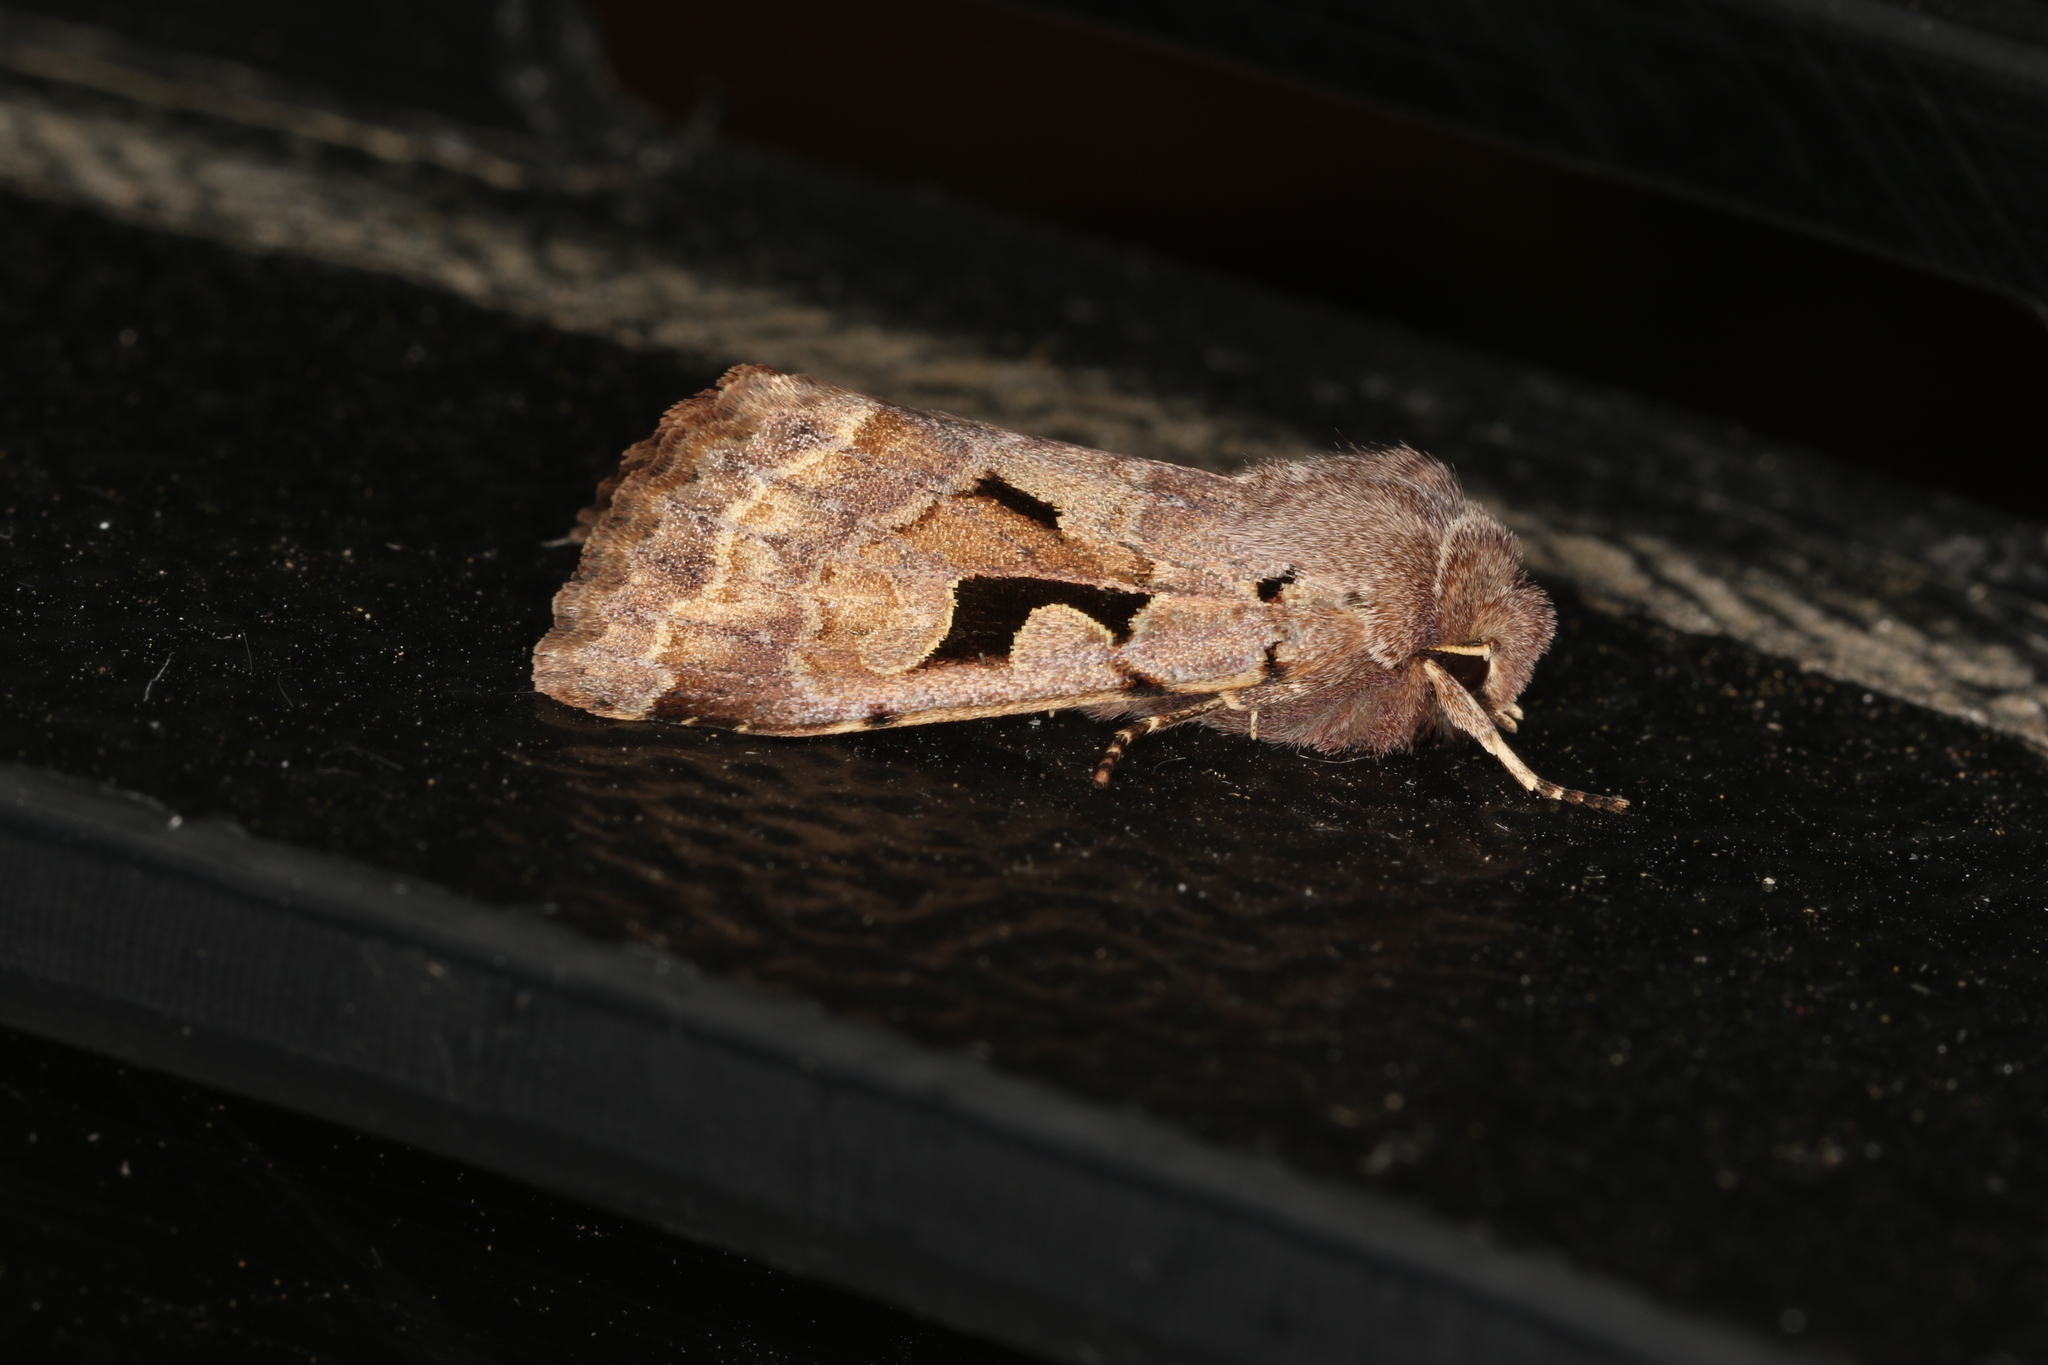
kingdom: Animalia
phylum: Arthropoda
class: Insecta
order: Lepidoptera
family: Noctuidae
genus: Orthosia
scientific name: Orthosia gothica
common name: Hebrew character
